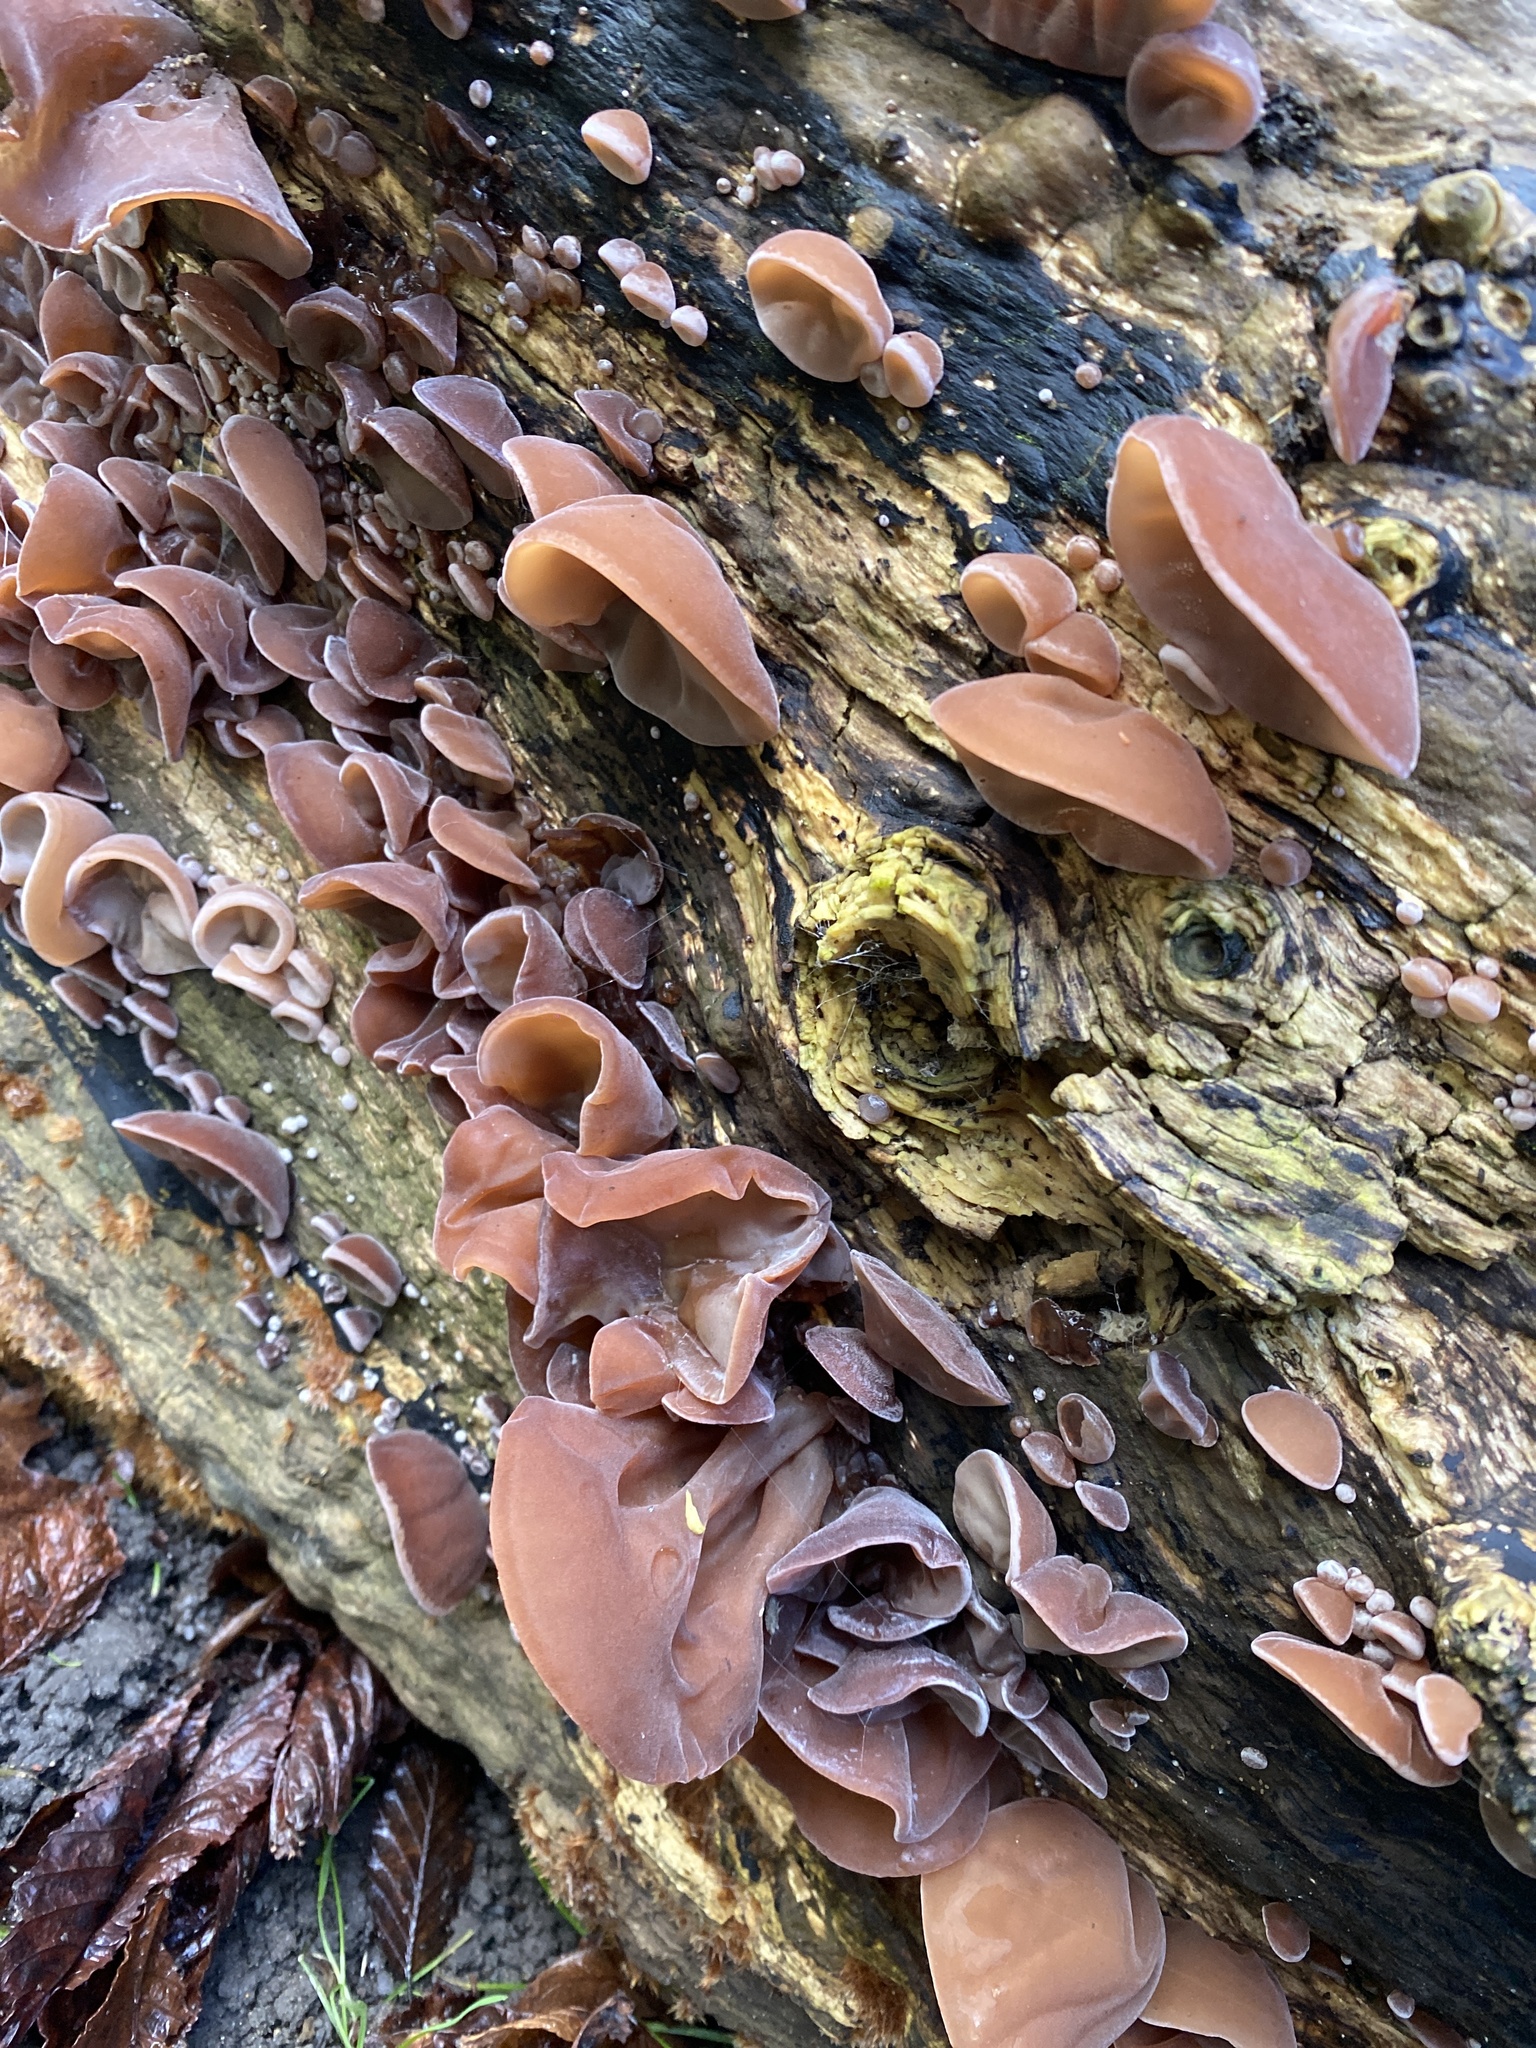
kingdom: Fungi
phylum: Basidiomycota
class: Agaricomycetes
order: Auriculariales
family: Auriculariaceae
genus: Auricularia
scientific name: Auricularia auricula-judae
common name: Jelly ear
